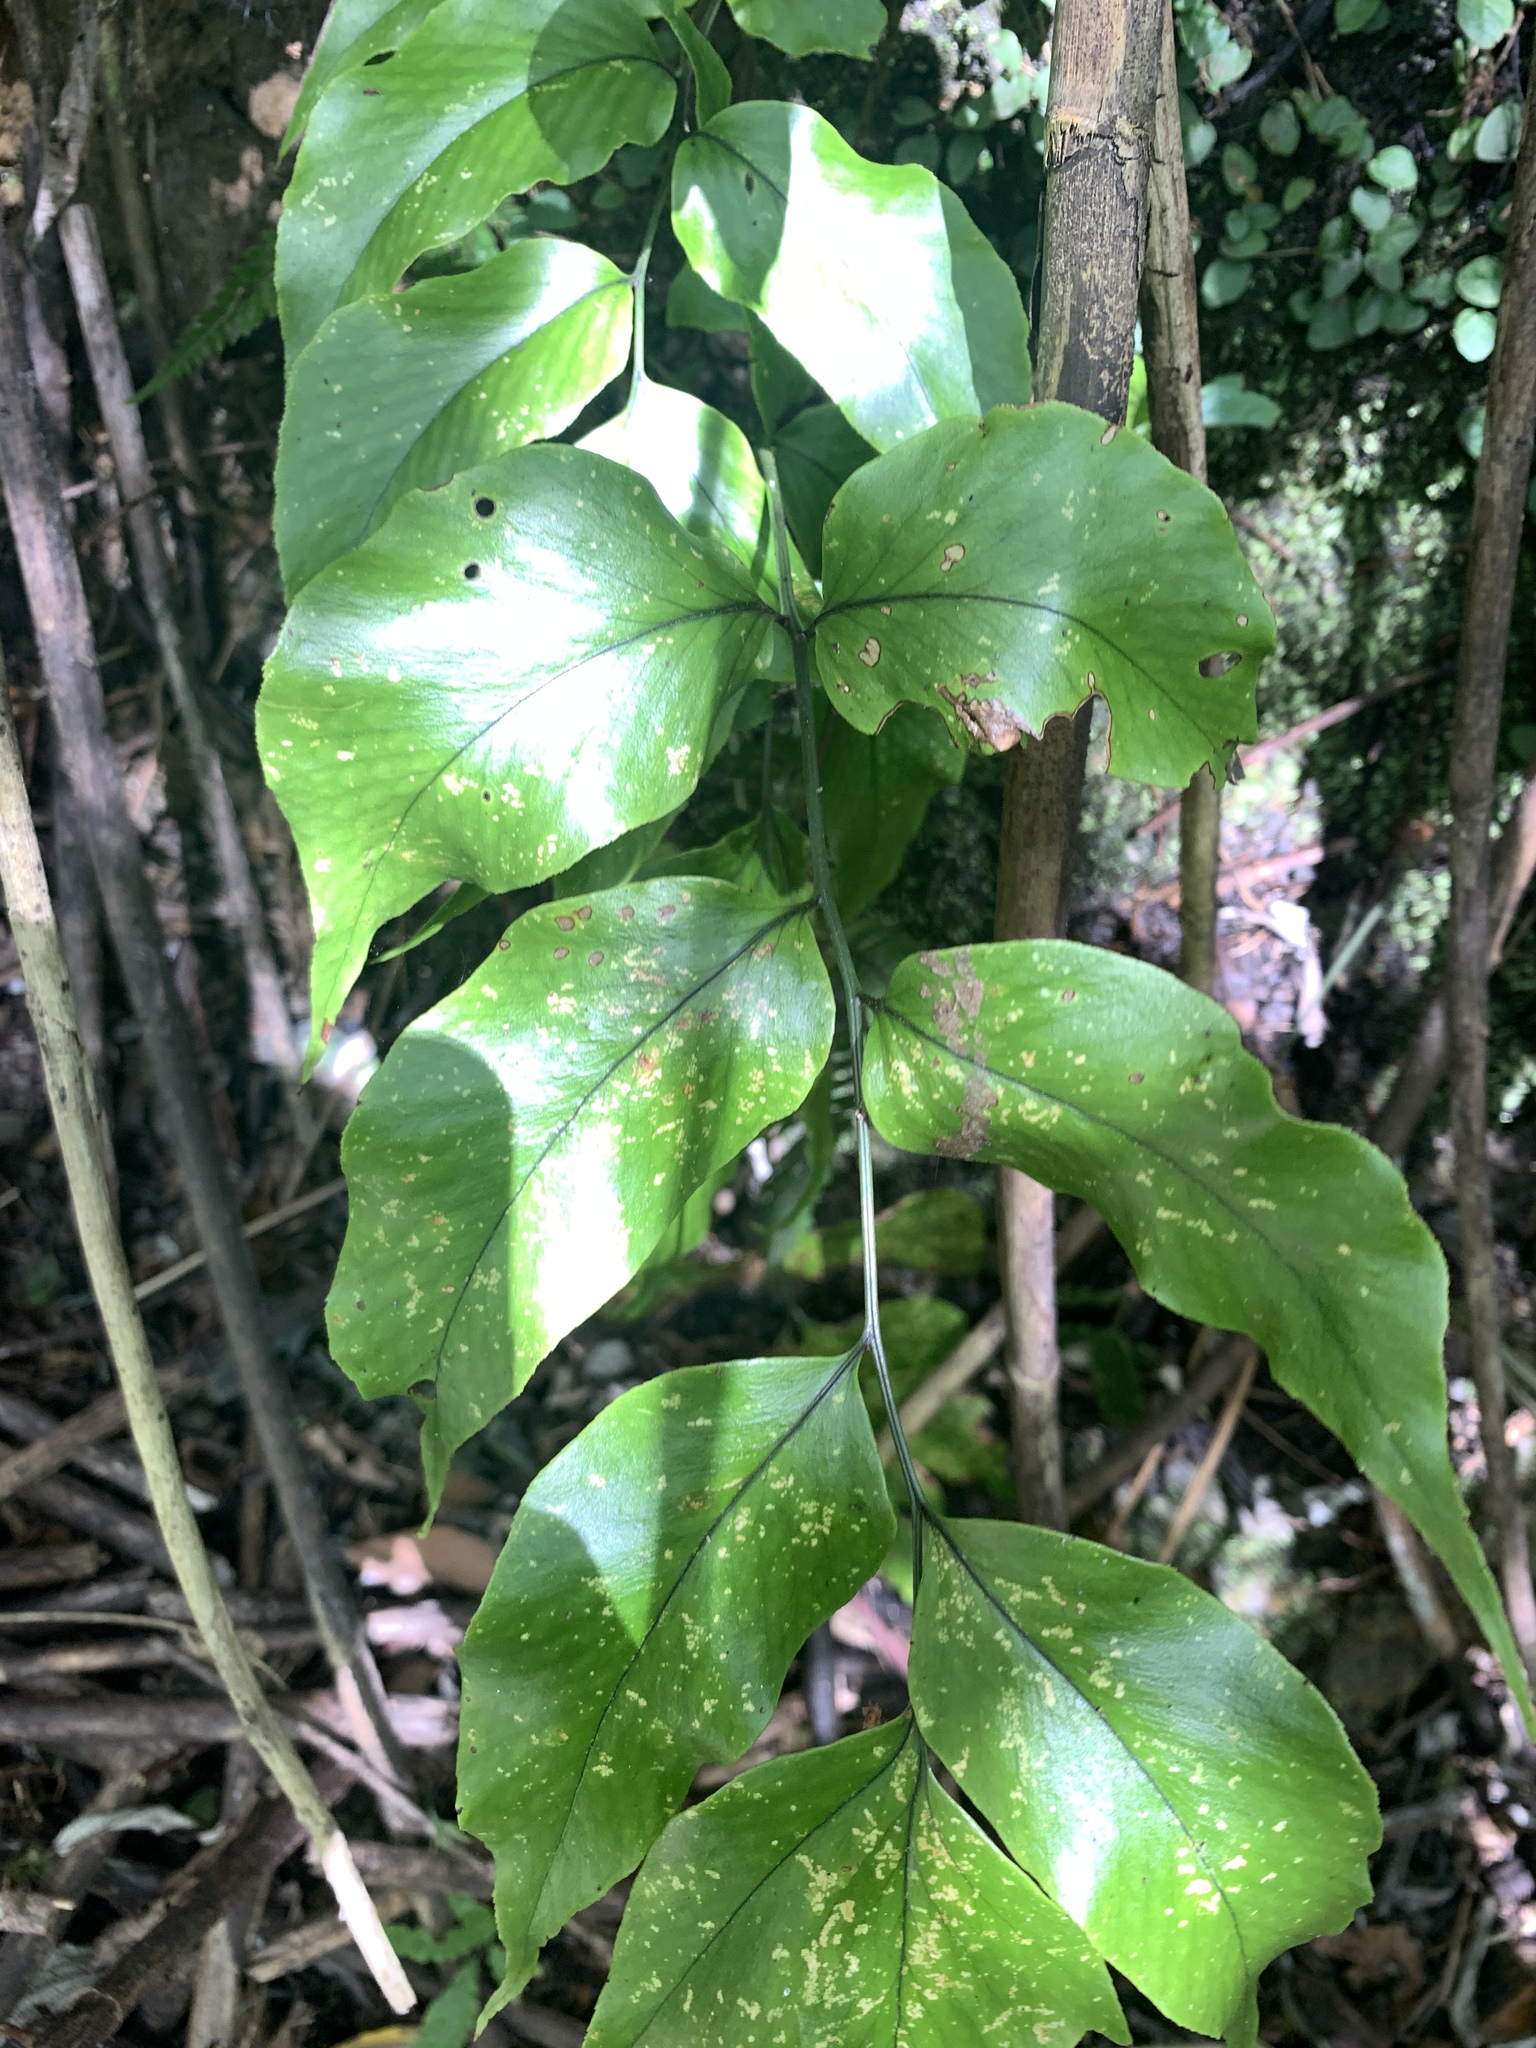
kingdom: Plantae
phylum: Tracheophyta
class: Polypodiopsida
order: Polypodiales
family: Dryopteridaceae
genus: Cyrtomium
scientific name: Cyrtomium caryotideum
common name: Asiatic holly fern
